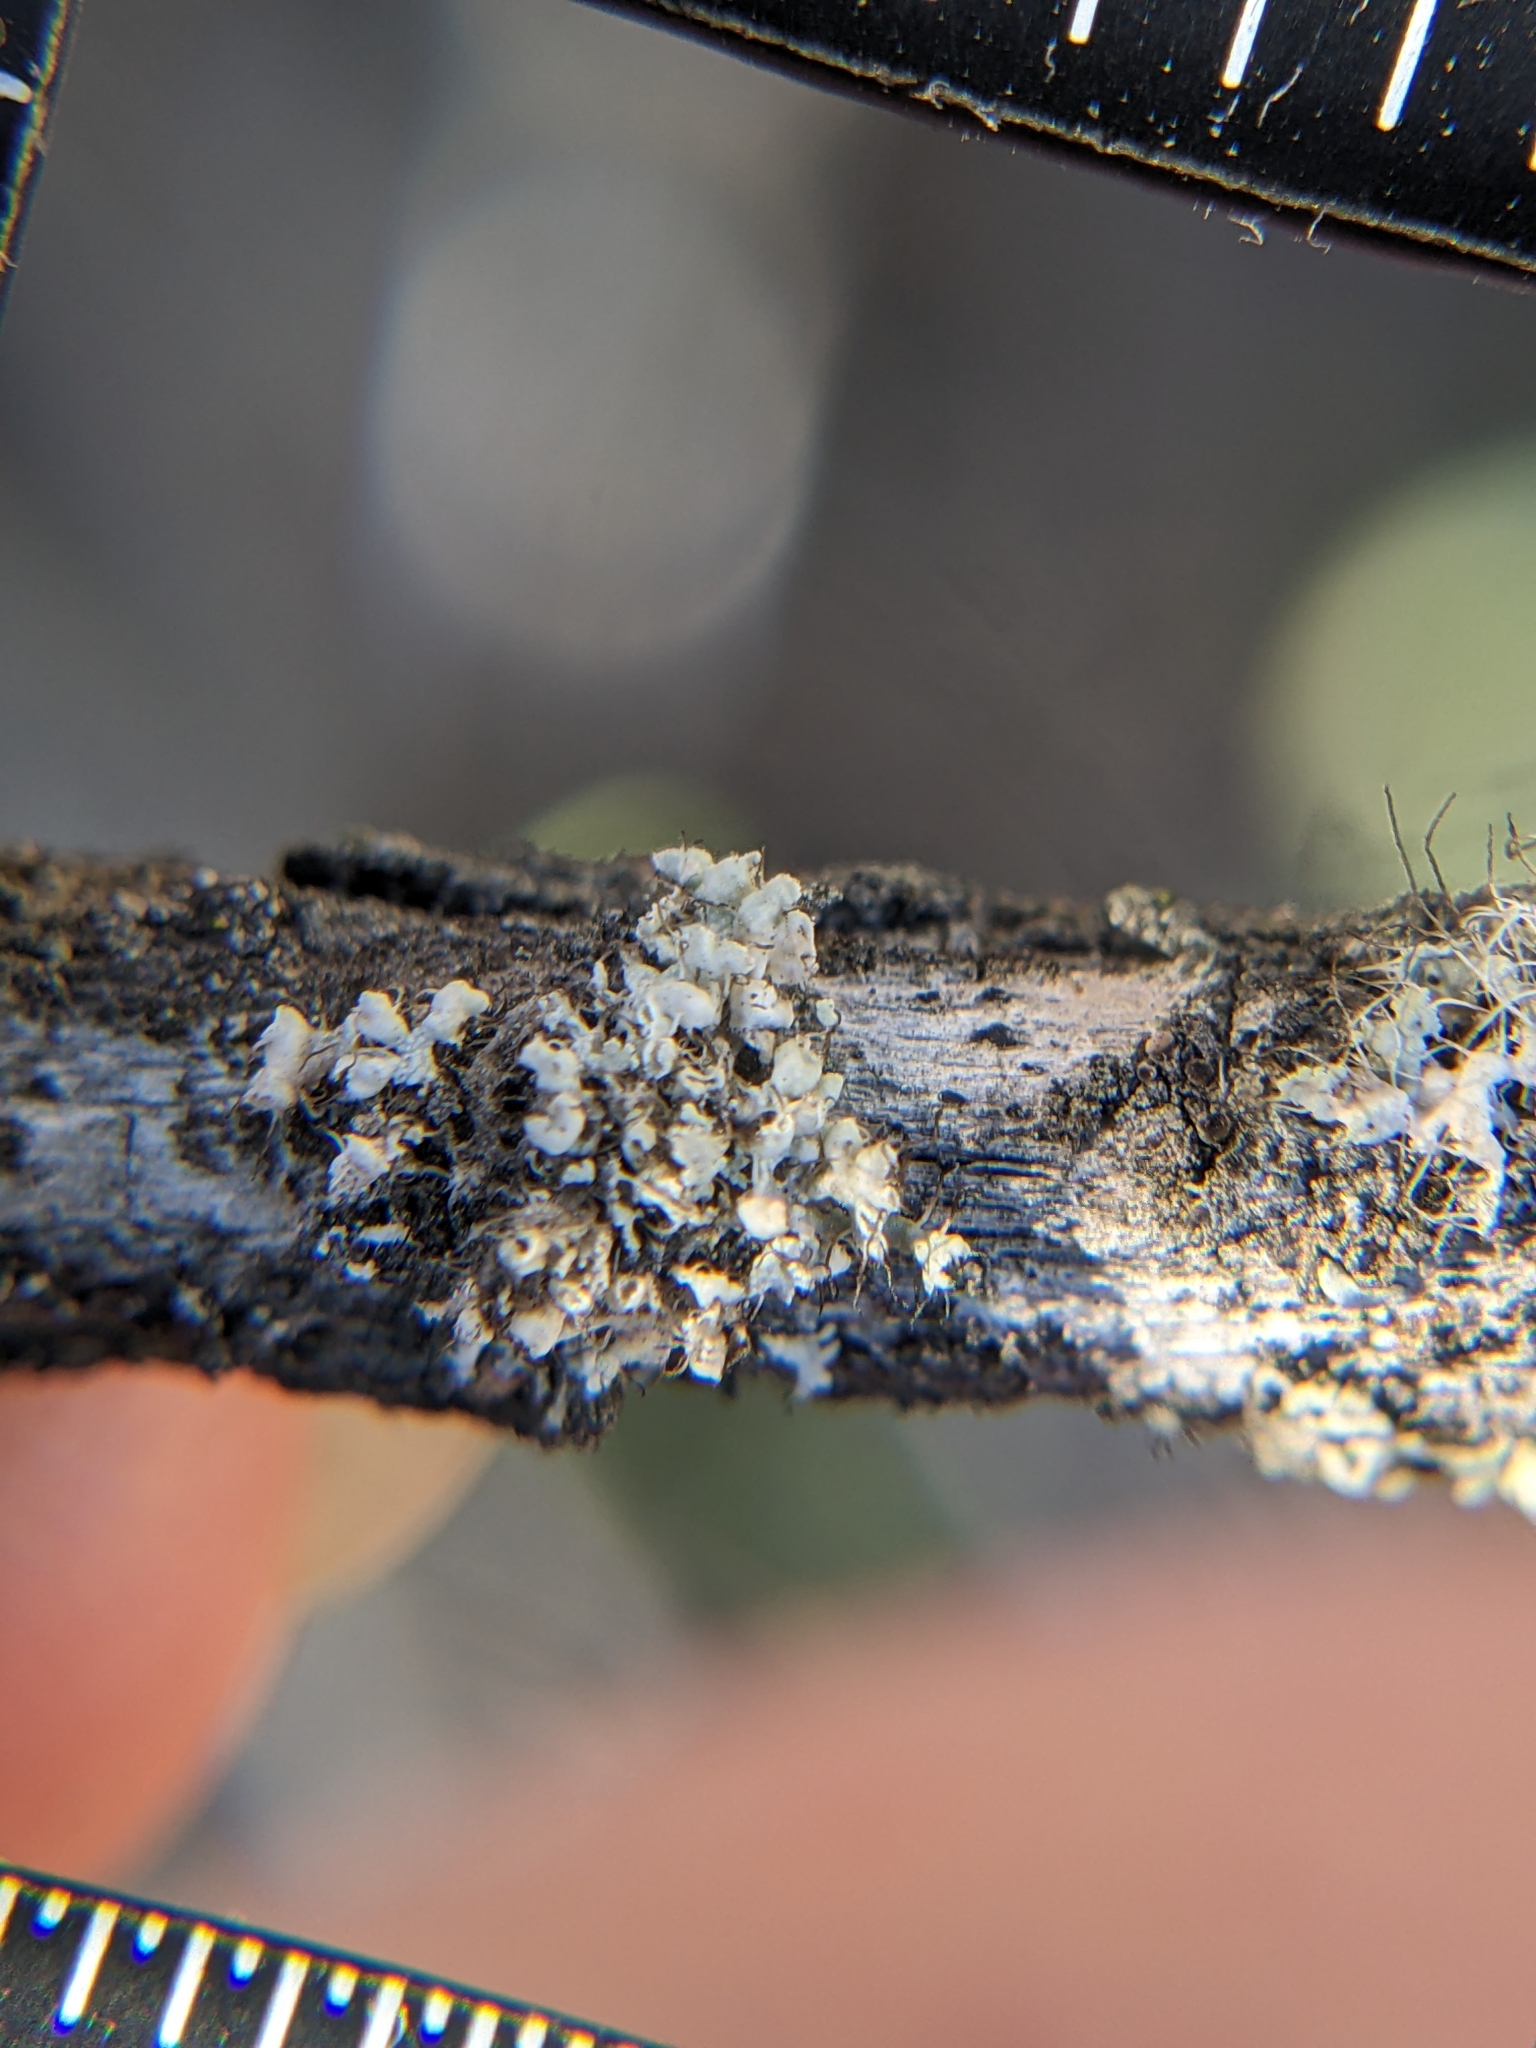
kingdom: Fungi
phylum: Ascomycota
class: Lecanoromycetes
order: Caliciales
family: Physciaceae
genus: Physcia
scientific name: Physcia adscendens
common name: Hooded rosette lichen
